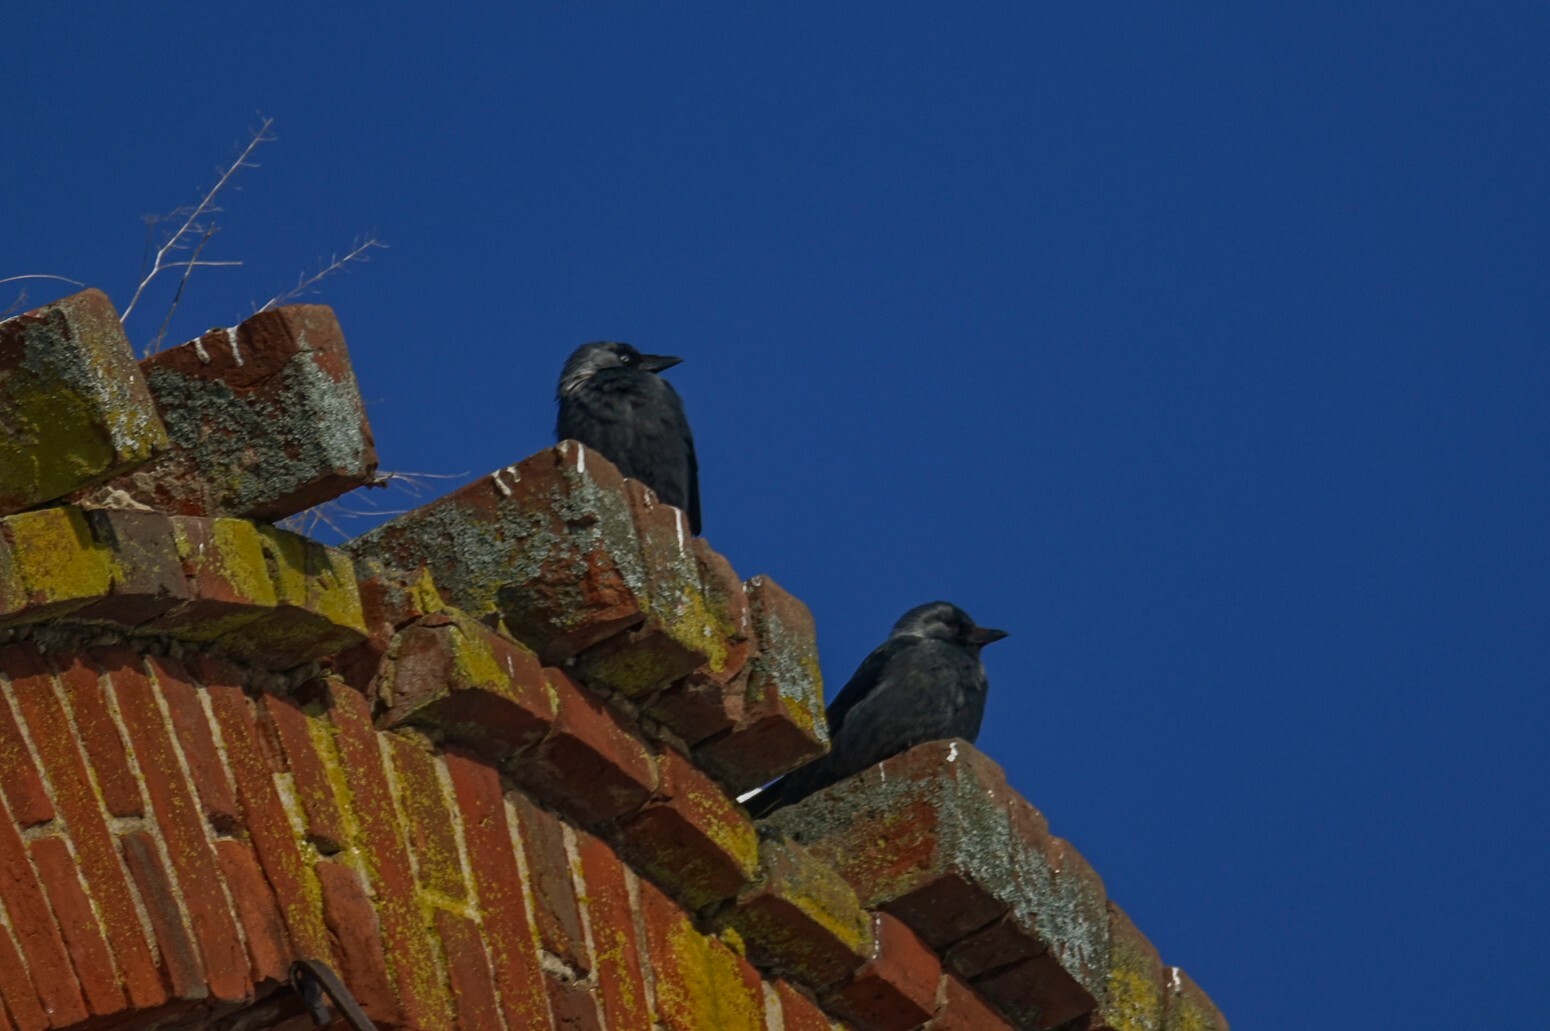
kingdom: Animalia
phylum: Chordata
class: Aves
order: Passeriformes
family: Corvidae
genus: Coloeus
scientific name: Coloeus monedula
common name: Western jackdaw
